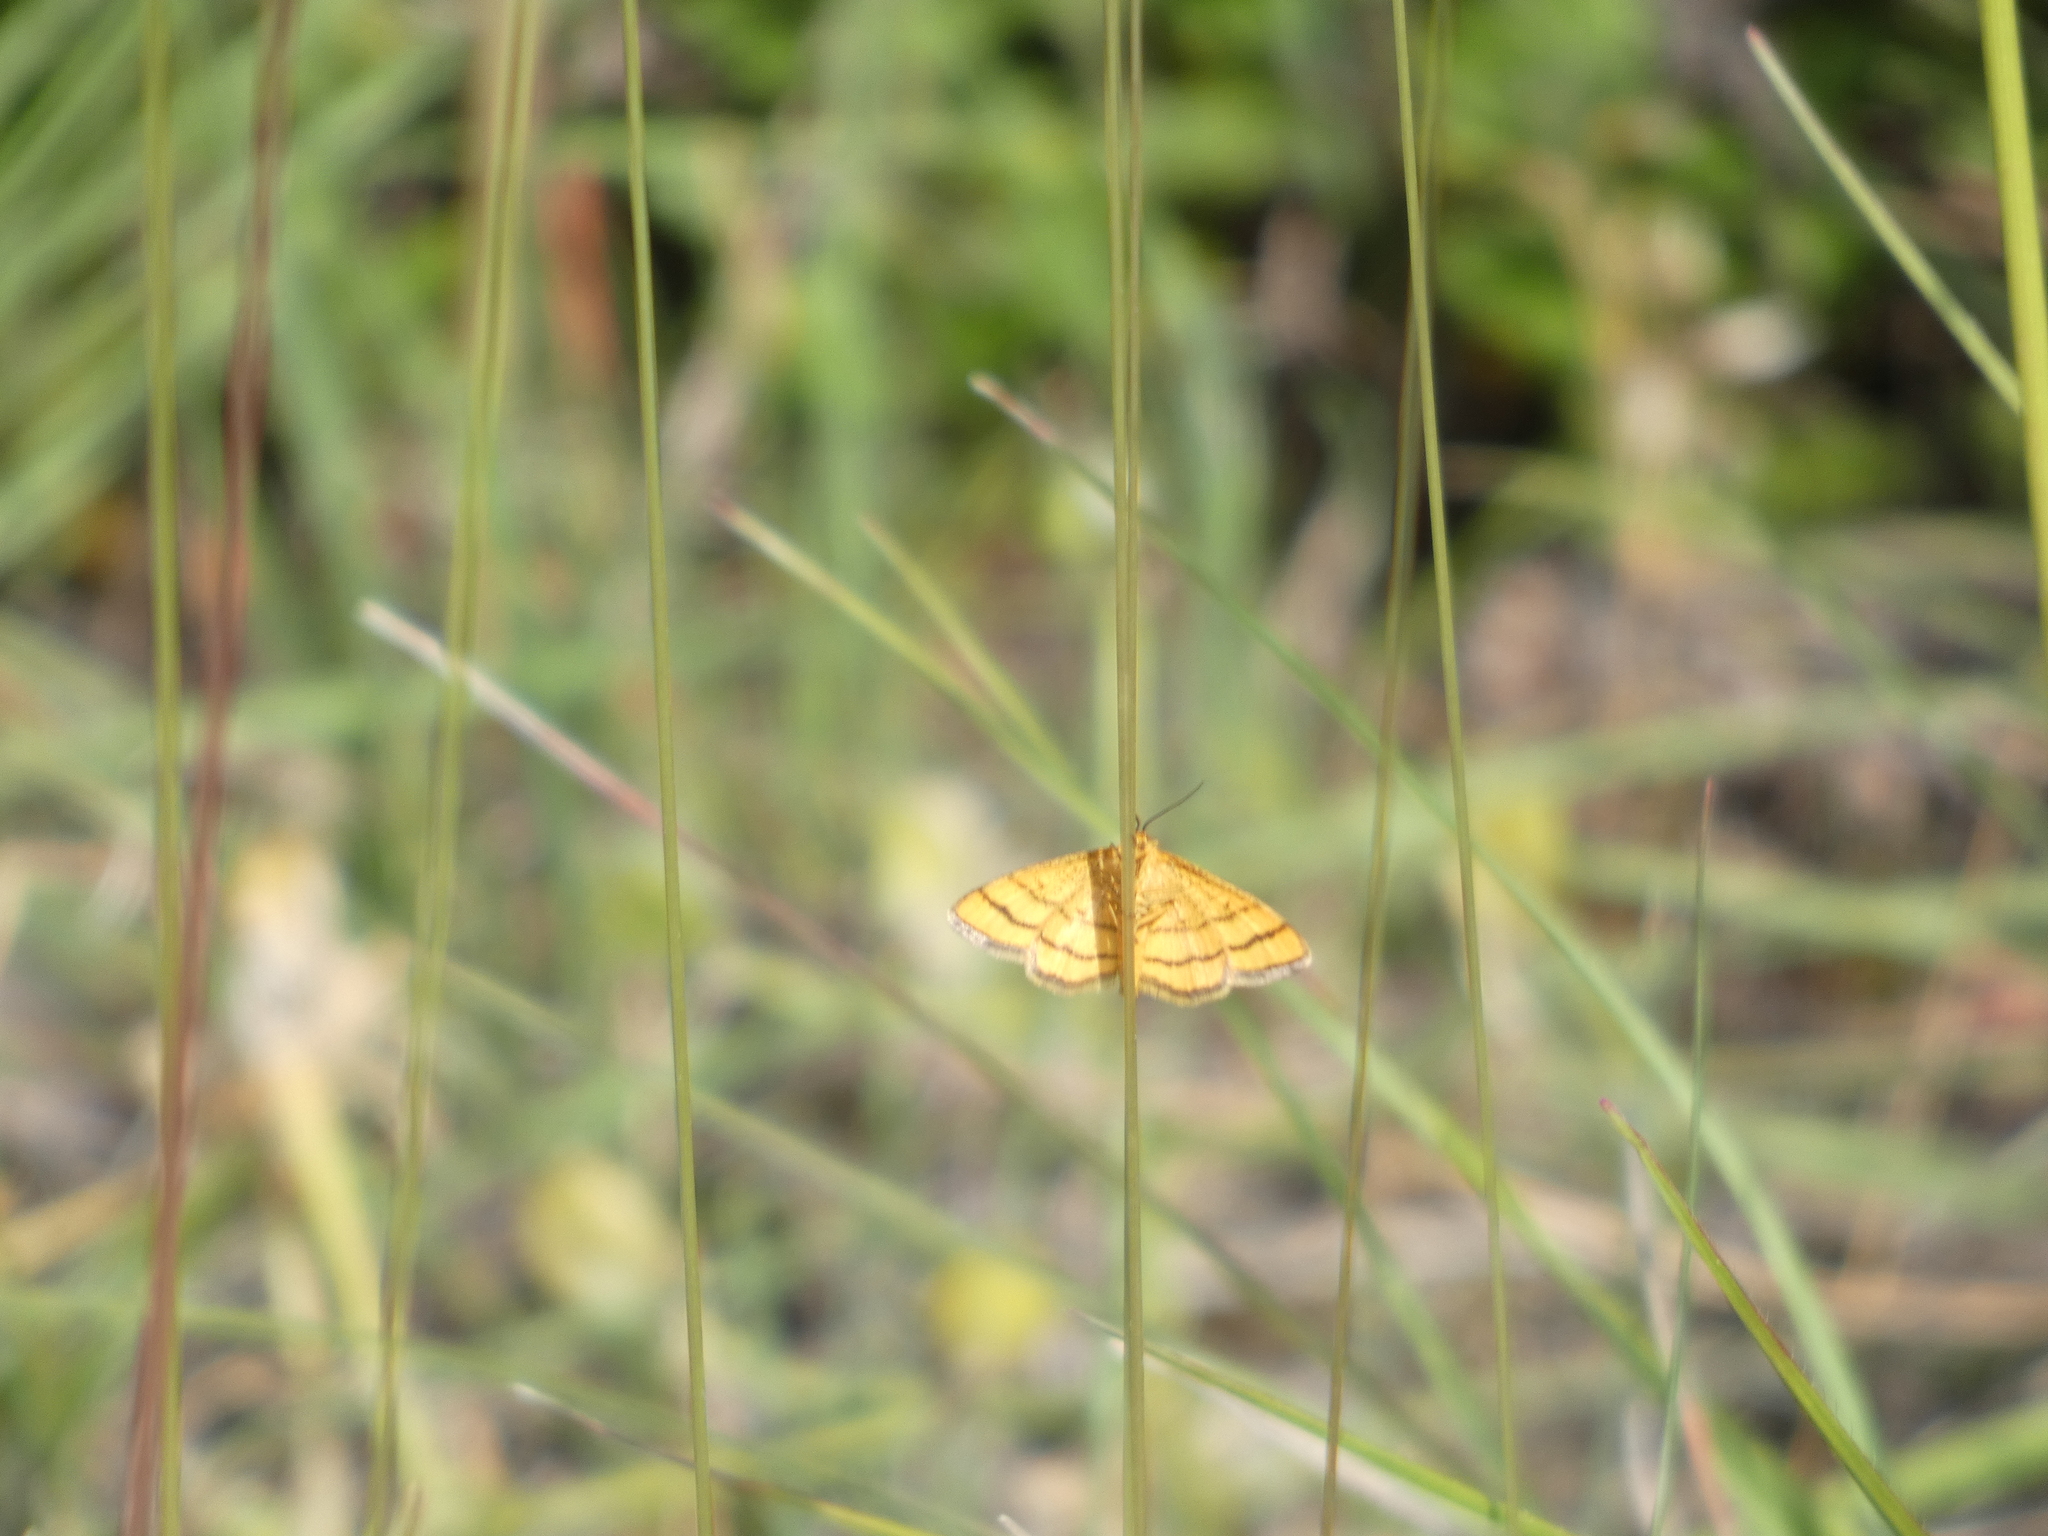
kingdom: Animalia
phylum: Arthropoda
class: Insecta
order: Lepidoptera
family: Geometridae
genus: Idaea
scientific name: Idaea aureolaria
